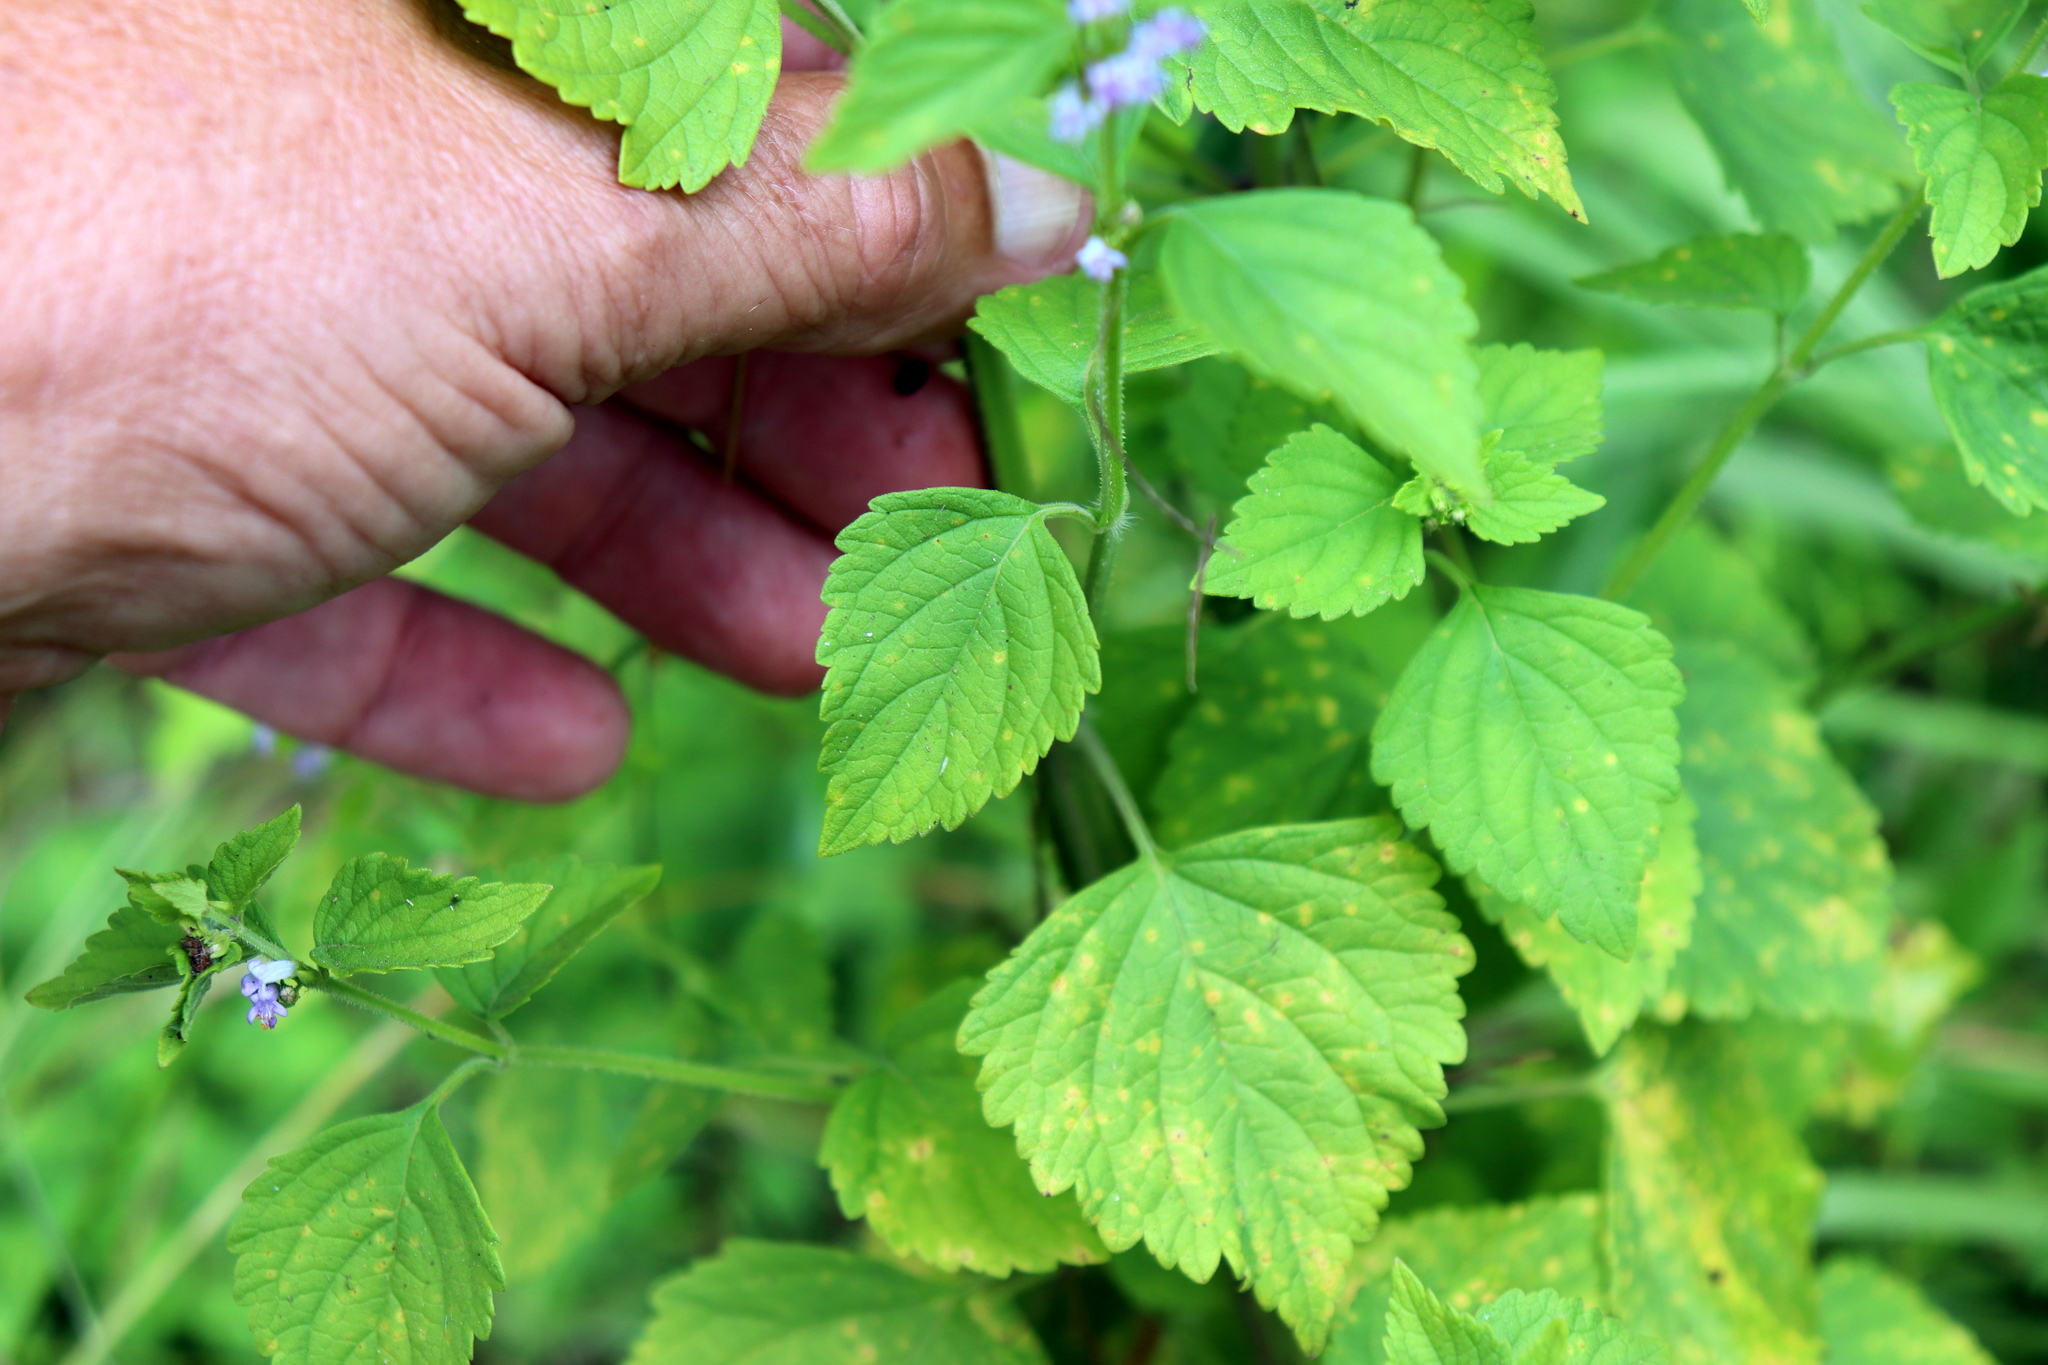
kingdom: Plantae
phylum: Tracheophyta
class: Magnoliopsida
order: Lamiales
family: Lamiaceae
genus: Cantinoa
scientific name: Cantinoa mutabilis
